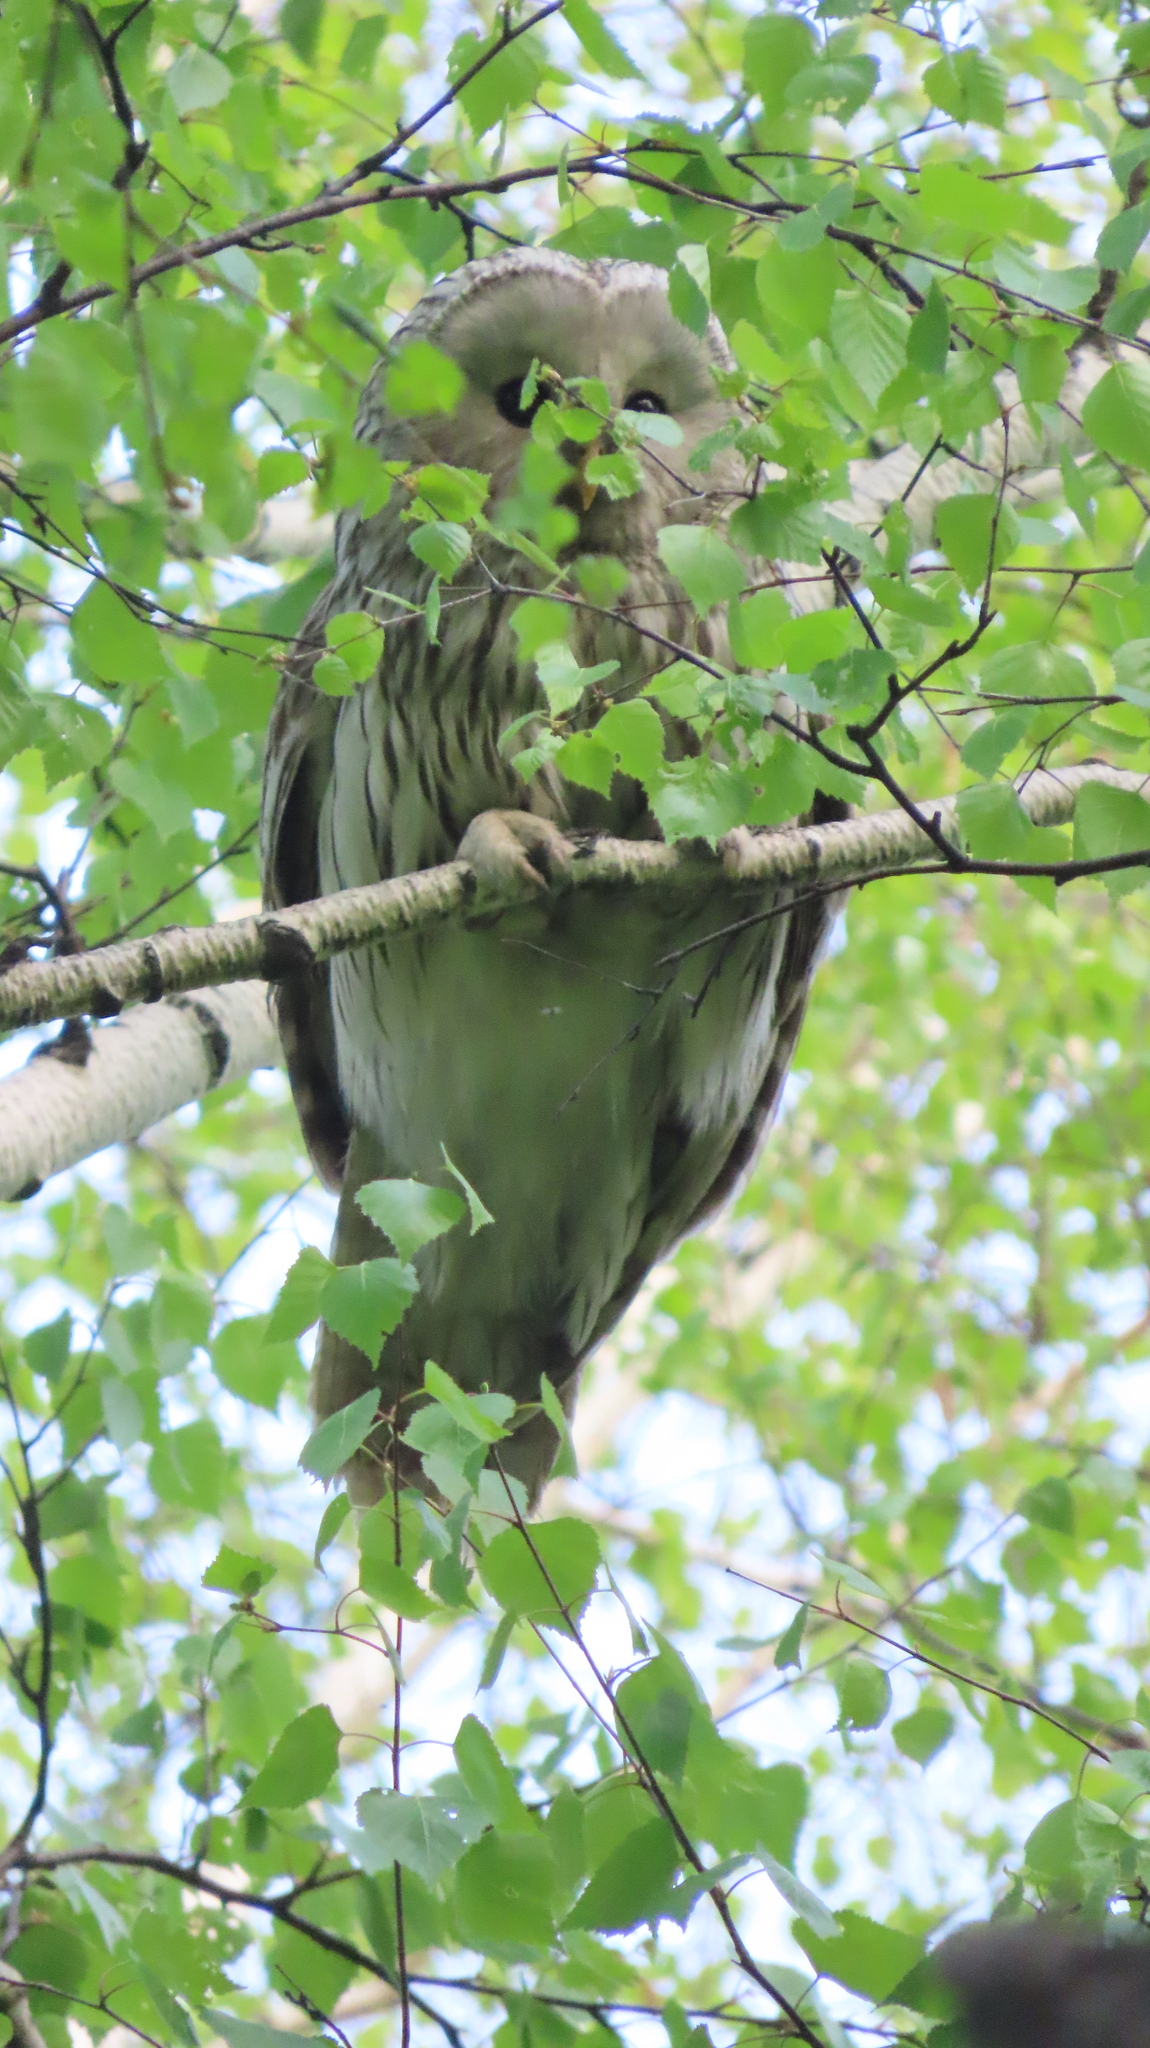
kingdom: Animalia
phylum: Chordata
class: Aves
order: Strigiformes
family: Strigidae
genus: Strix
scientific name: Strix uralensis
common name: Ural owl
